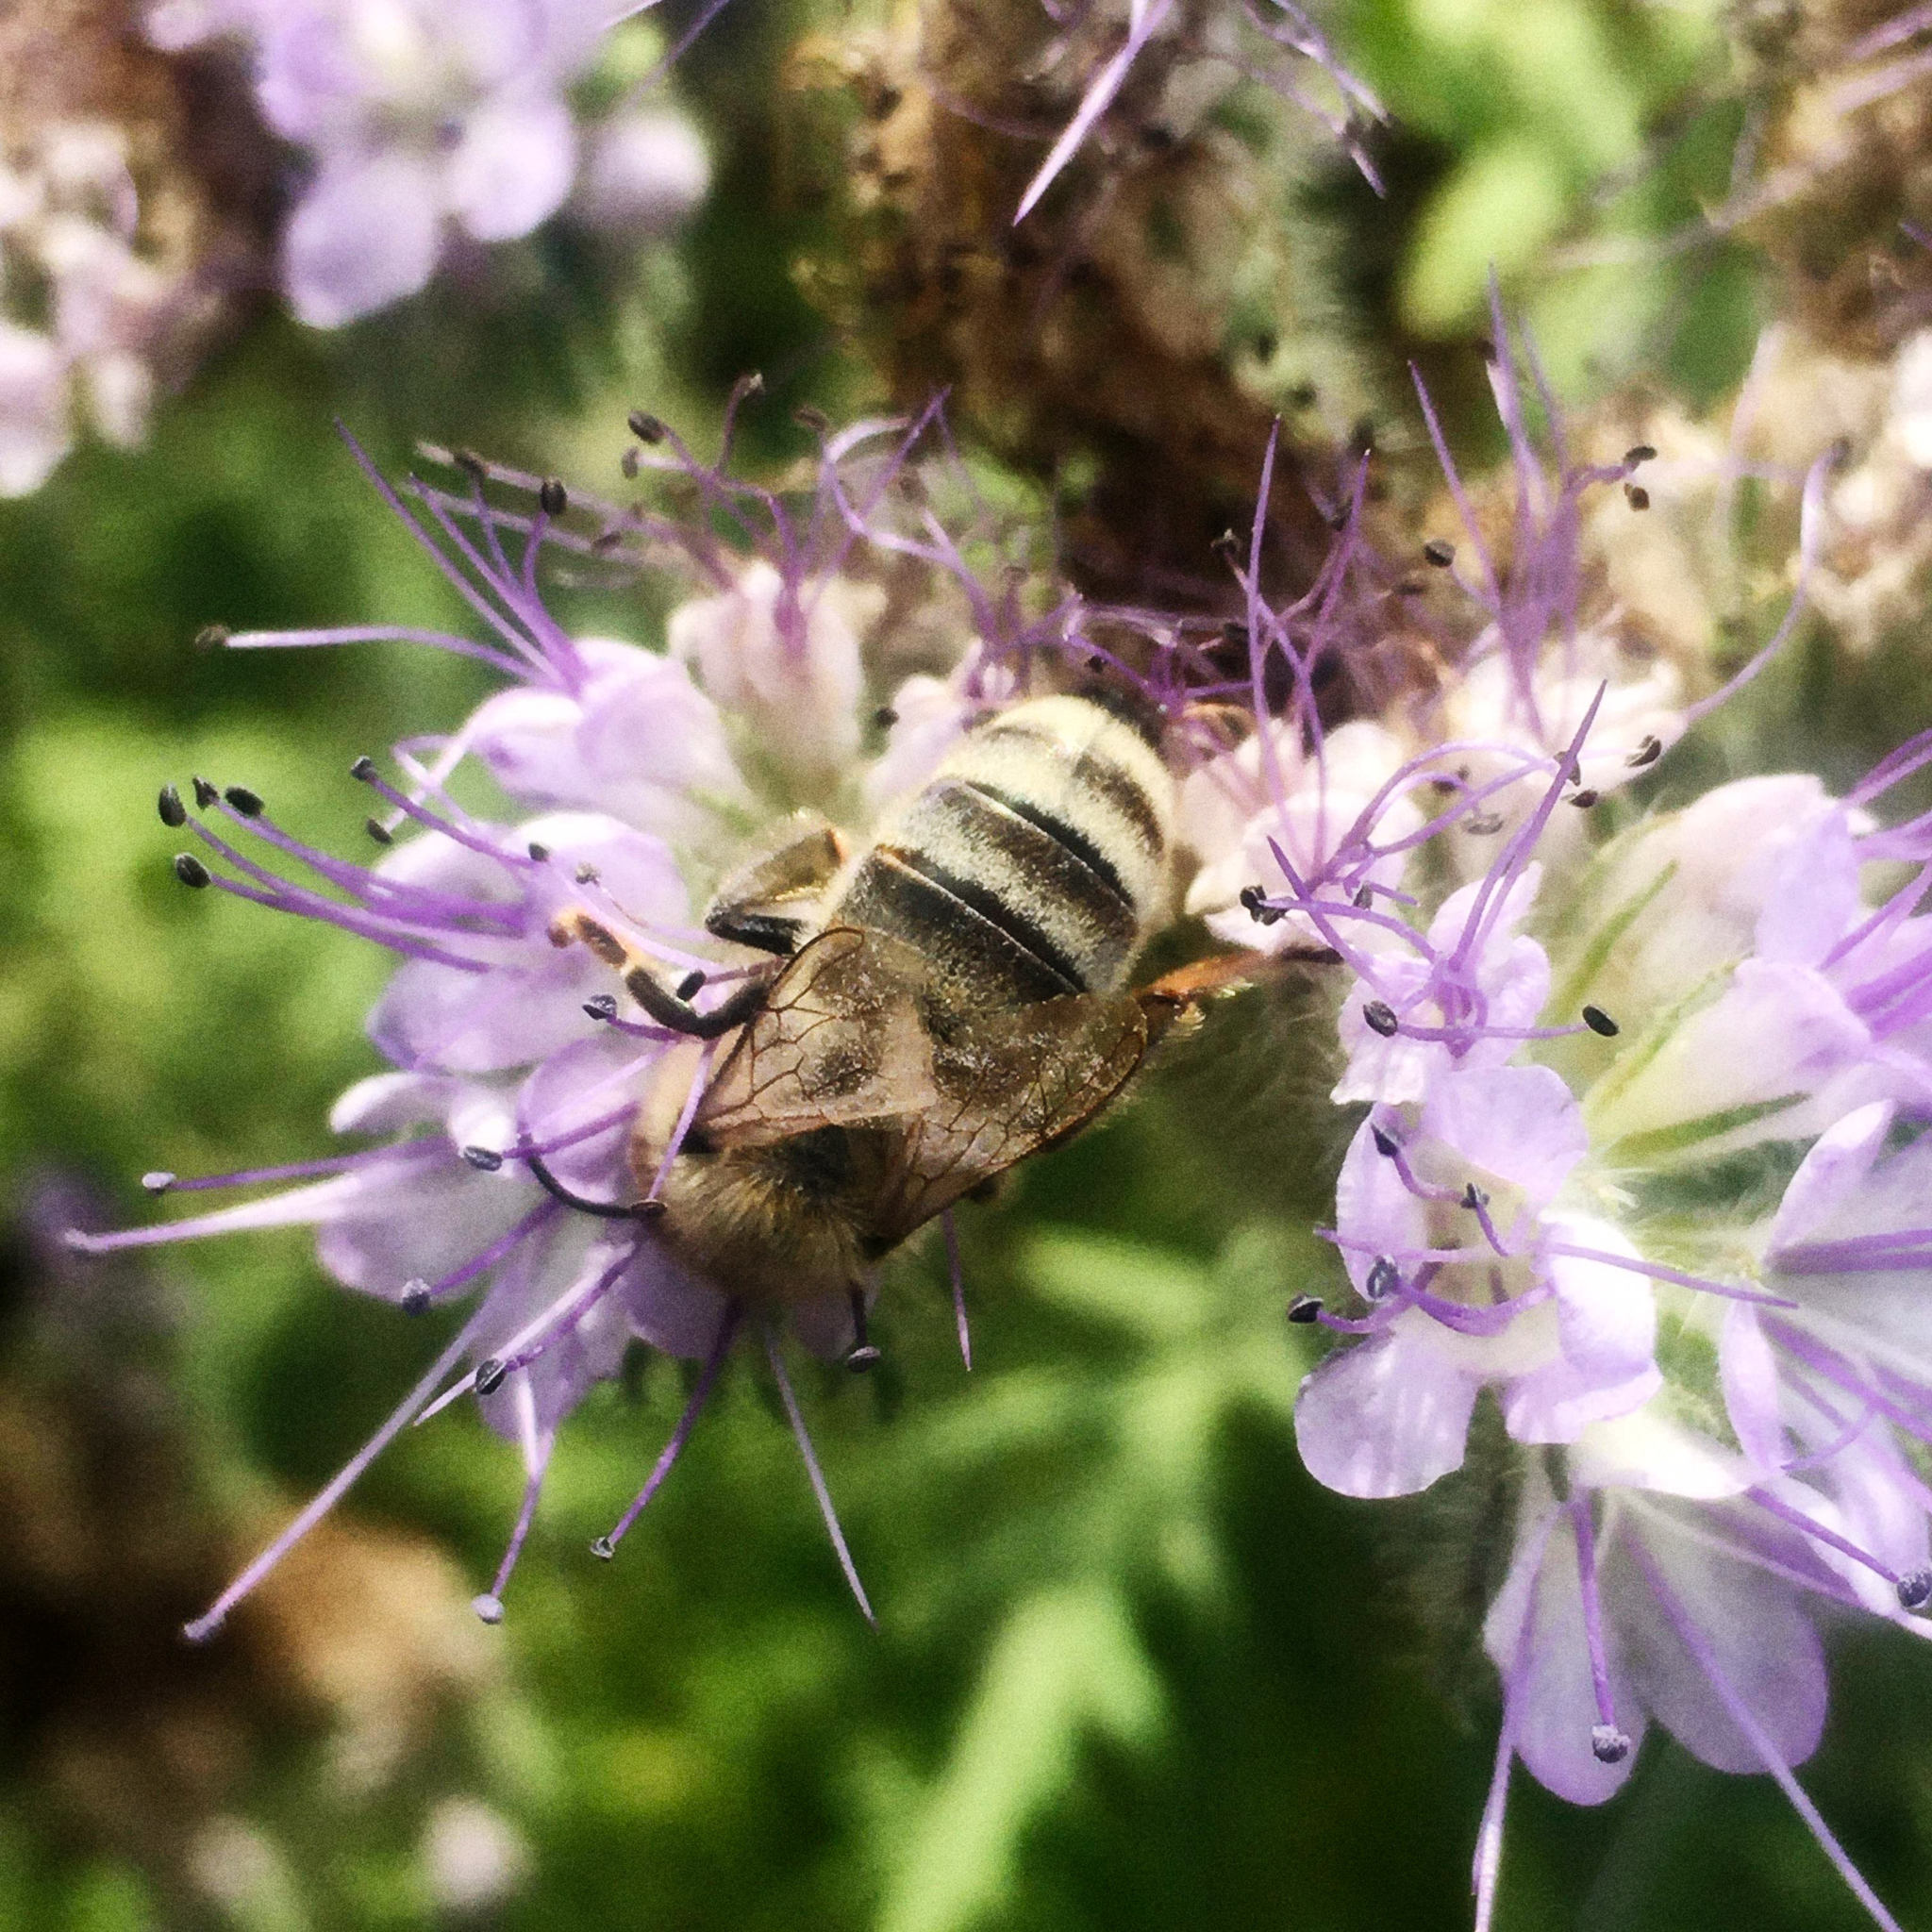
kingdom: Animalia
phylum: Arthropoda
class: Insecta
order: Hymenoptera
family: Apidae
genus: Apis
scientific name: Apis mellifera
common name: Honey bee
